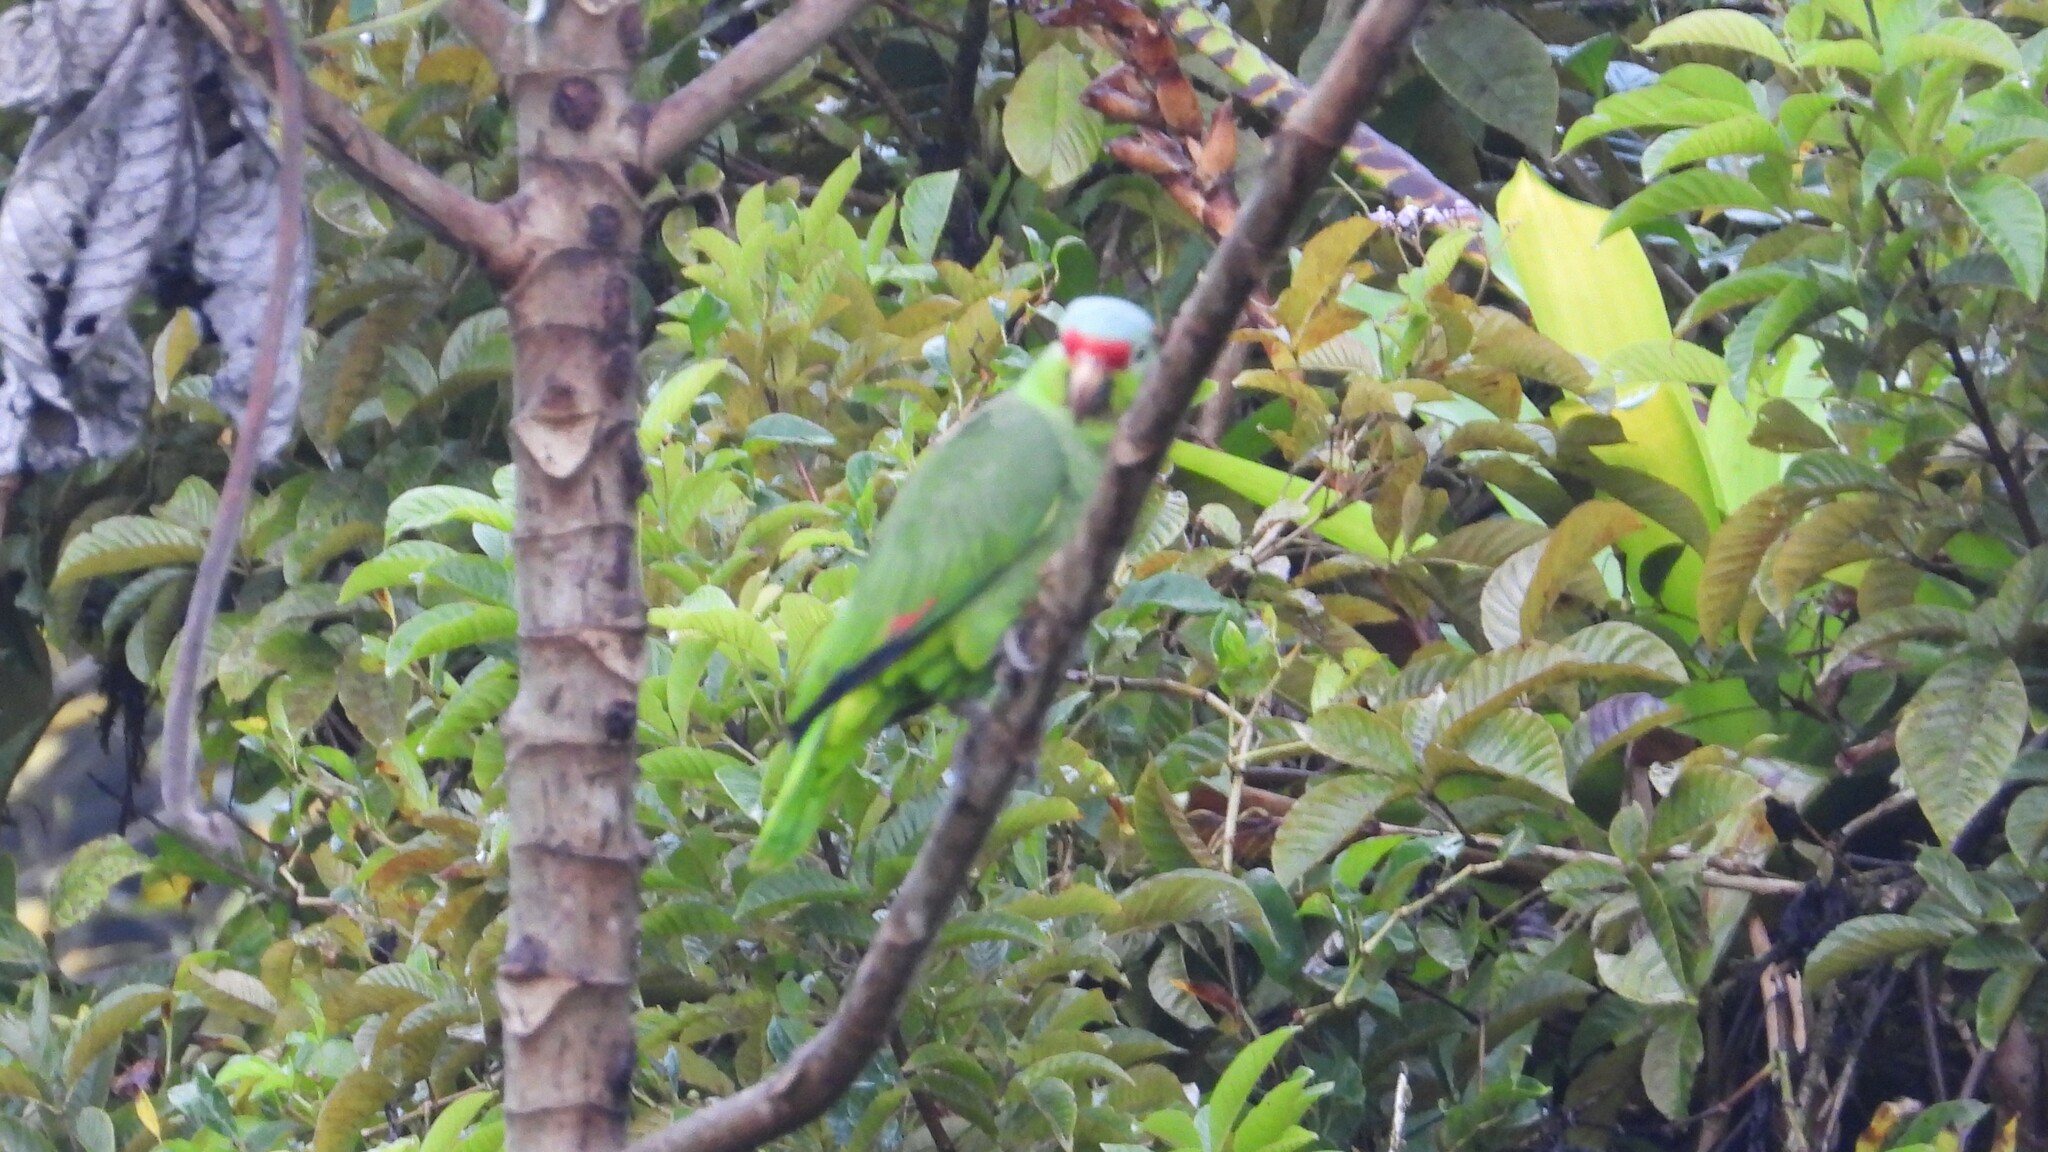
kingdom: Animalia
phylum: Chordata
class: Aves
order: Psittaciformes
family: Psittacidae
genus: Amazona
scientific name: Amazona autumnalis
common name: Red-lored amazon
